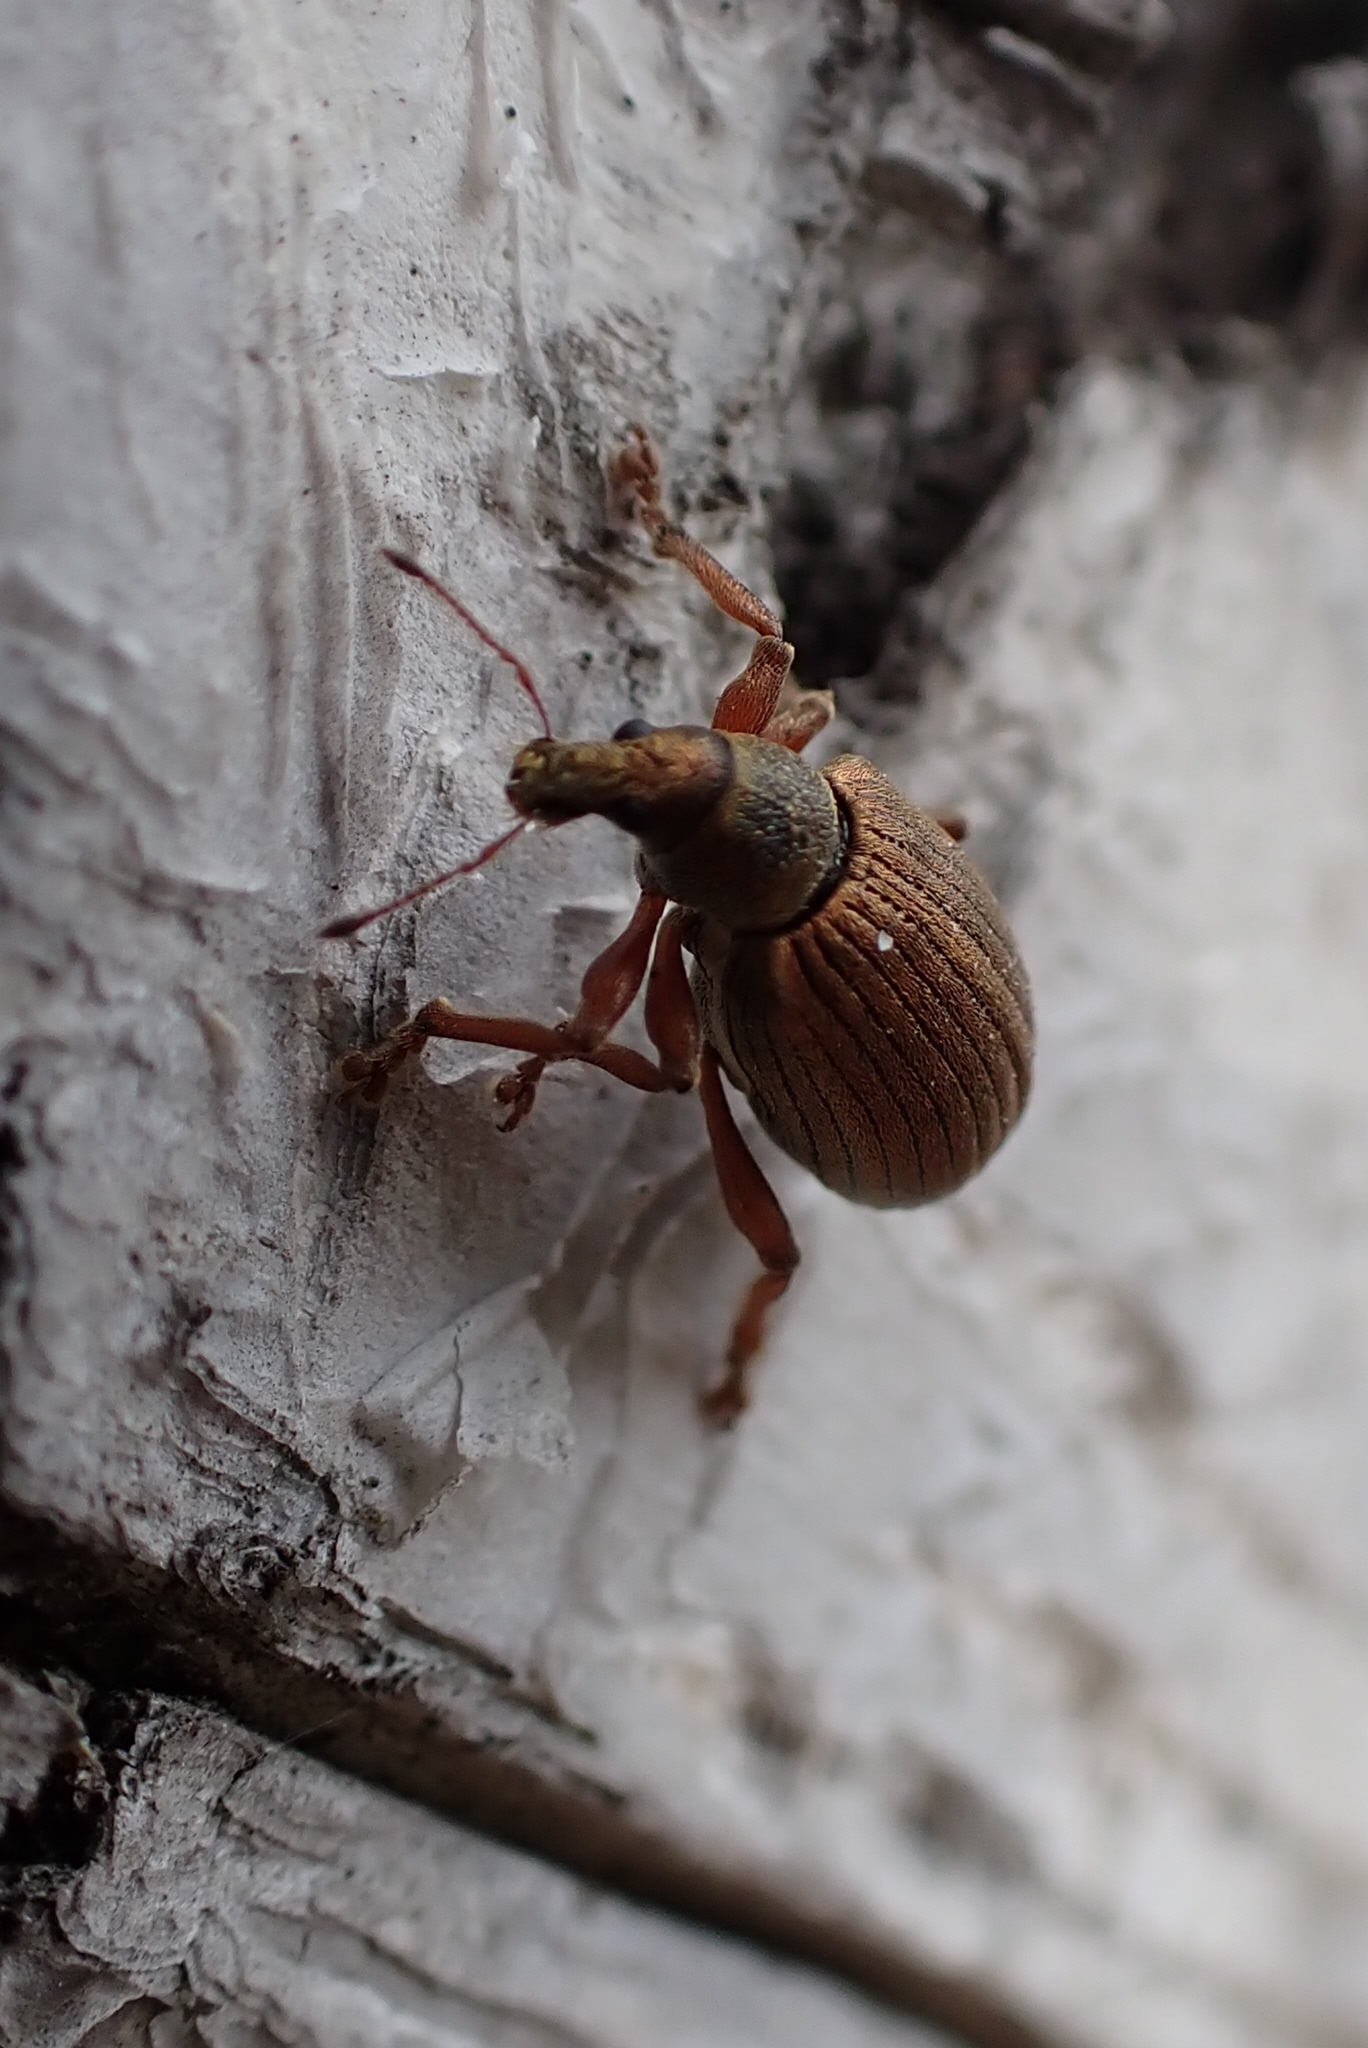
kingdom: Animalia
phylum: Arthropoda
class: Insecta
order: Coleoptera
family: Curculionidae
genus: Polydrusus
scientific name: Polydrusus mollis
